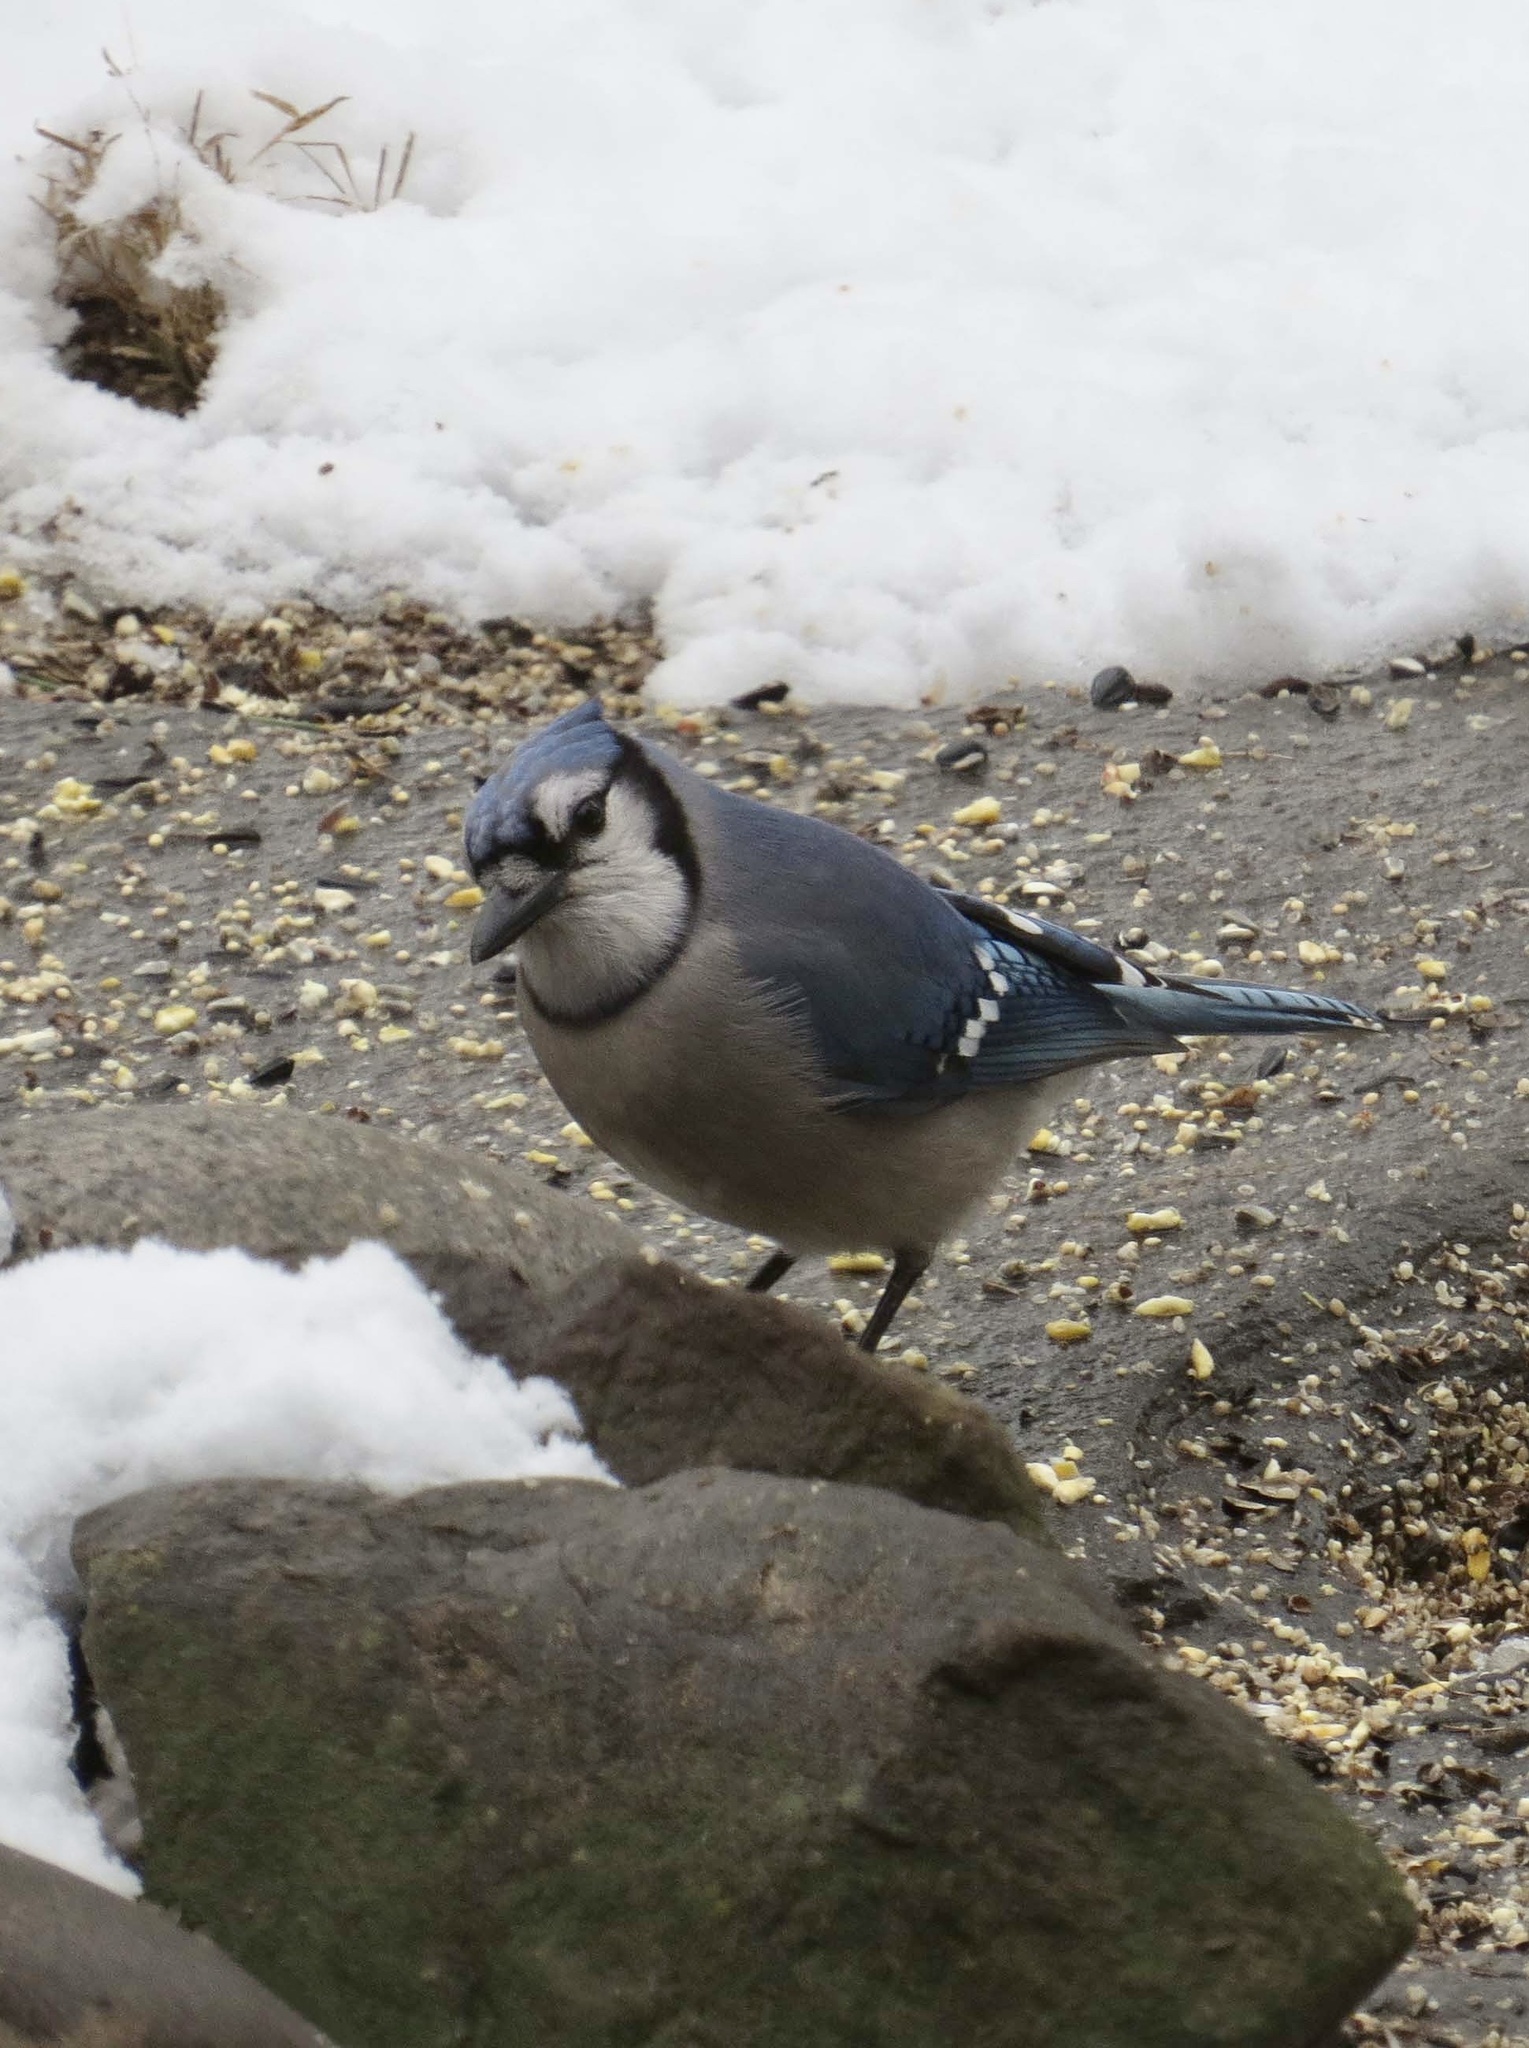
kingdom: Animalia
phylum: Chordata
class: Aves
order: Passeriformes
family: Corvidae
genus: Cyanocitta
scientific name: Cyanocitta cristata
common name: Blue jay
